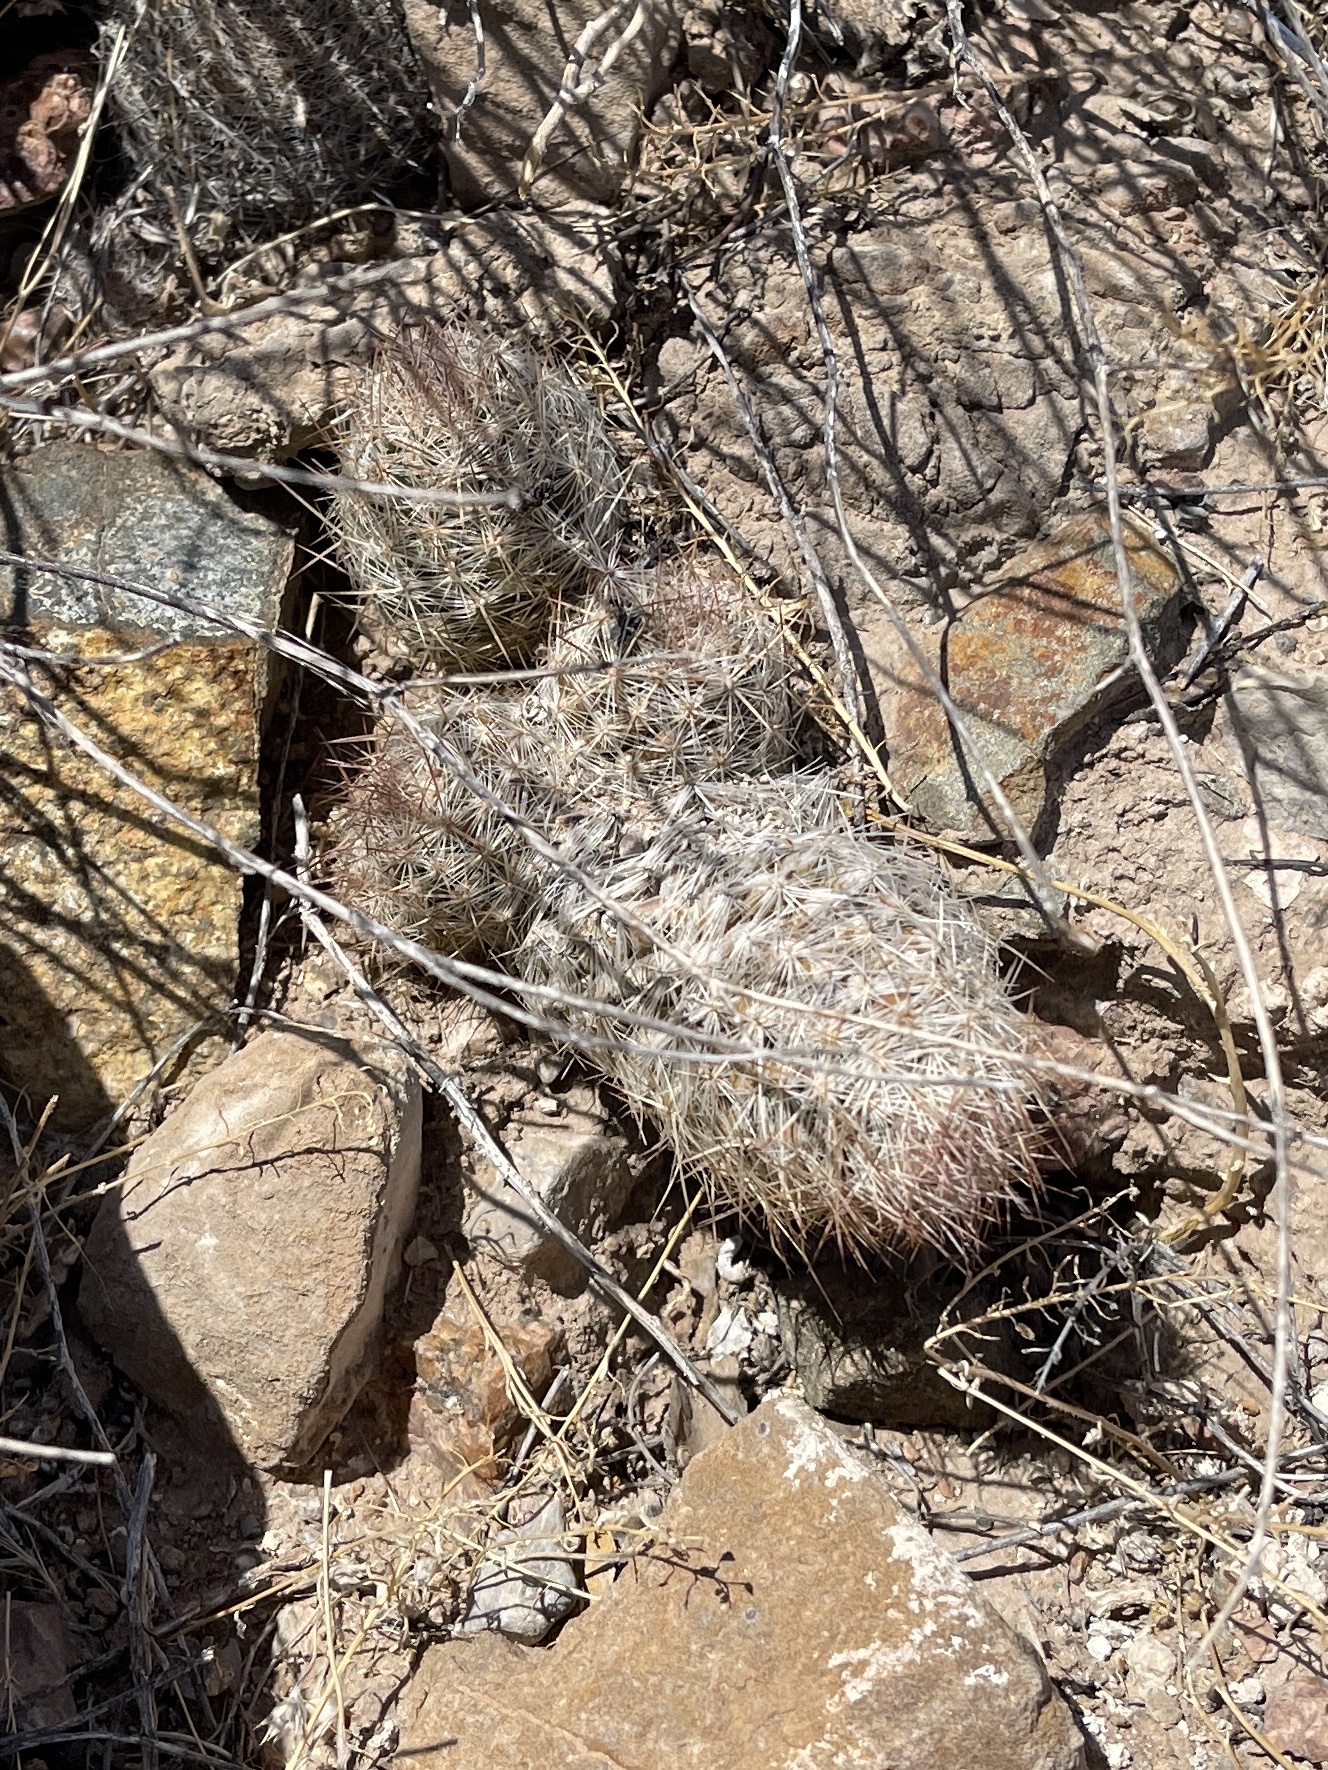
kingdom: Plantae
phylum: Tracheophyta
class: Magnoliopsida
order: Caryophyllales
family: Cactaceae
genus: Pelecyphora
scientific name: Pelecyphora tuberculosa
